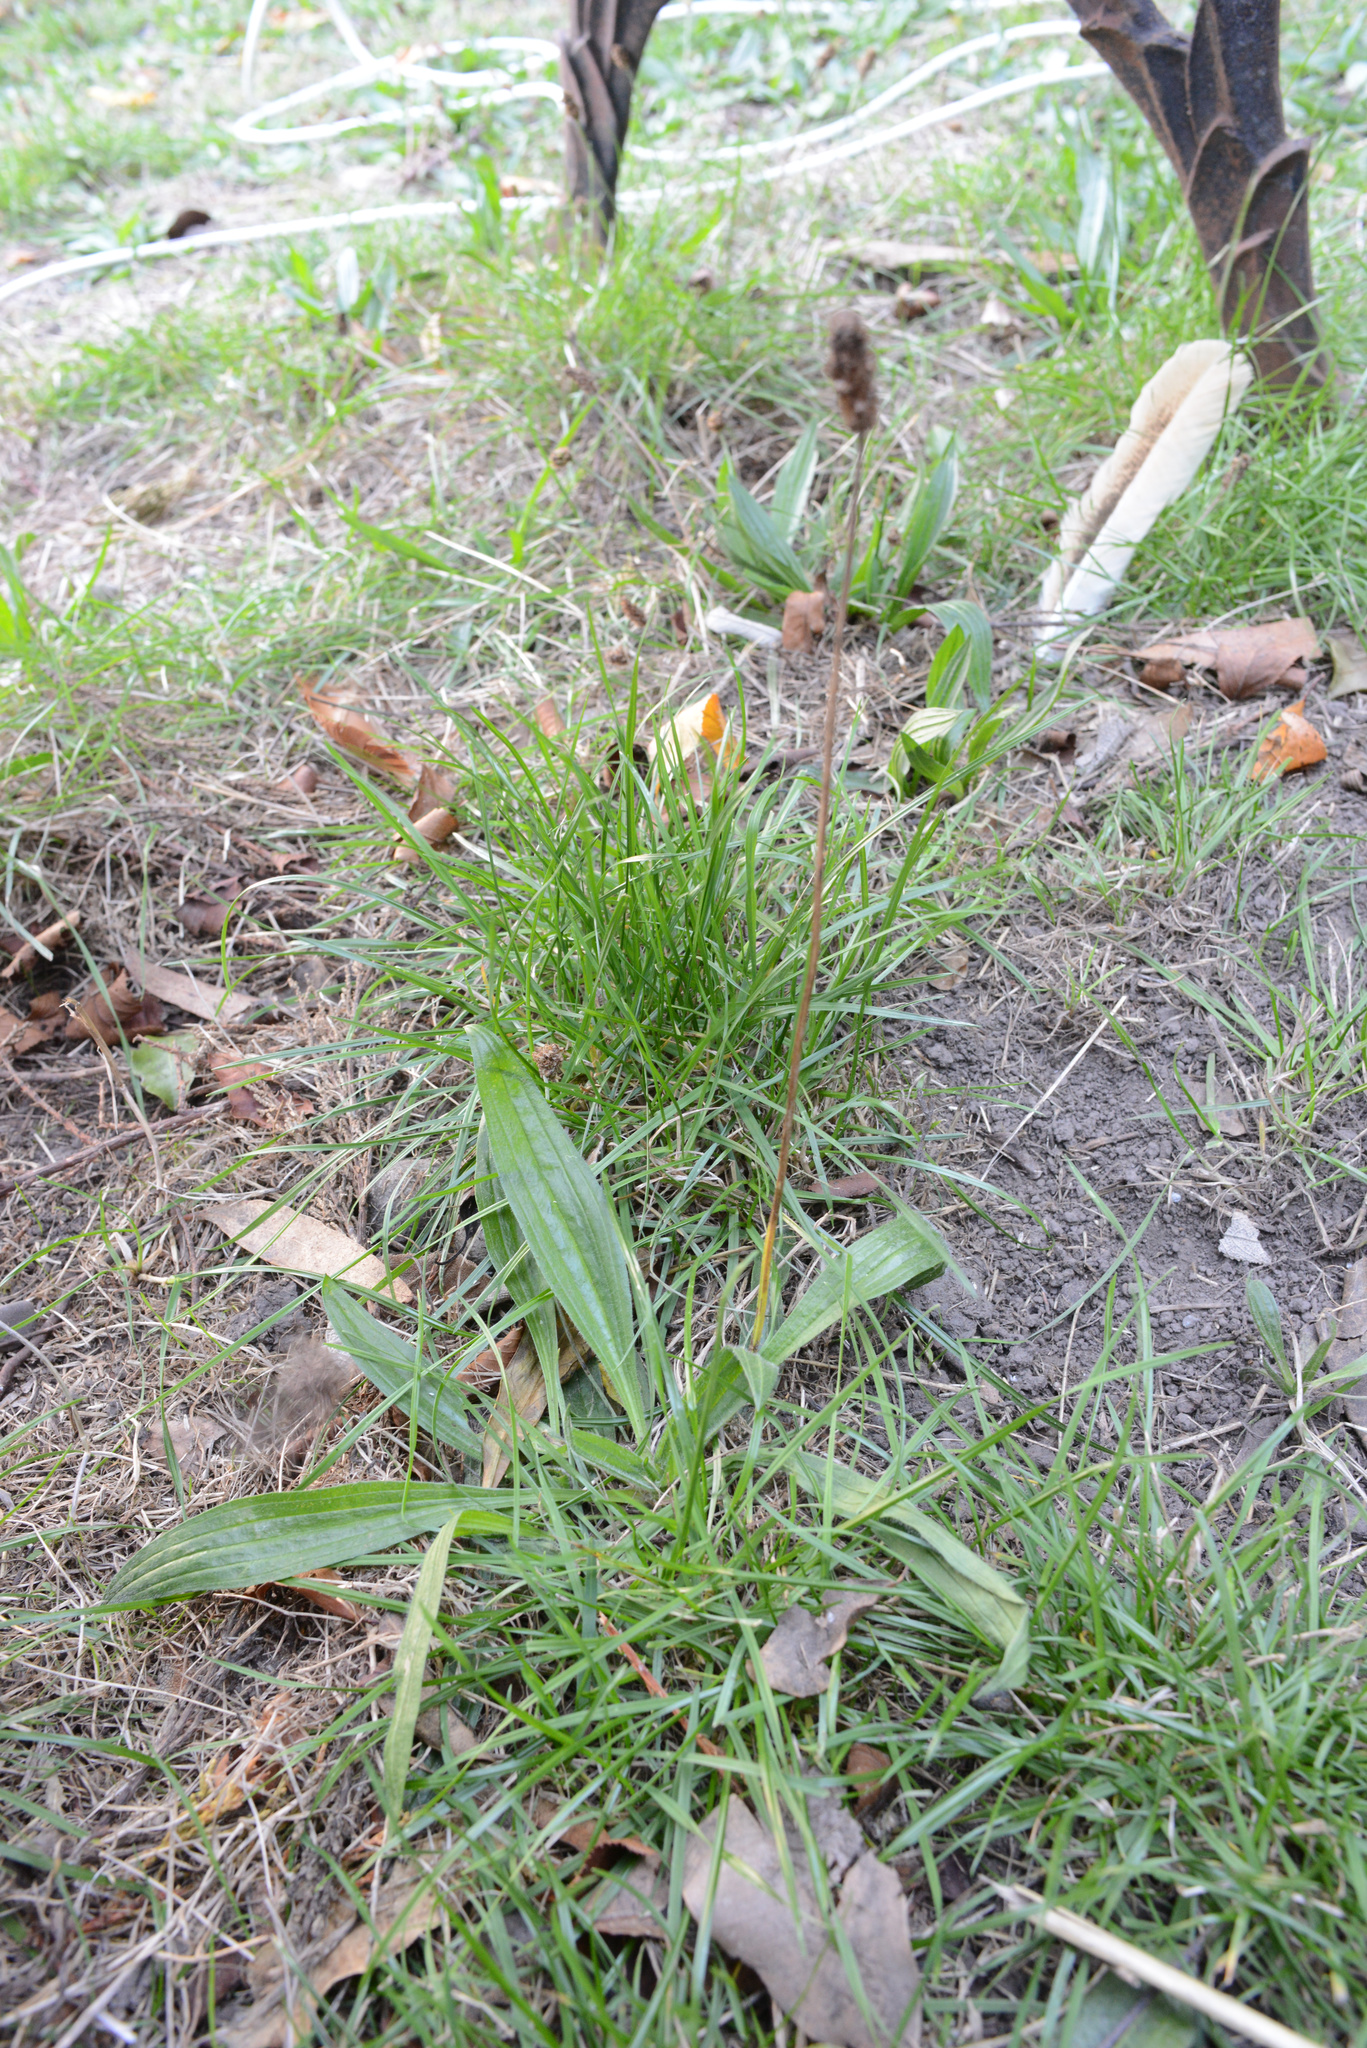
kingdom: Plantae
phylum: Tracheophyta
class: Magnoliopsida
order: Lamiales
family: Plantaginaceae
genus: Plantago
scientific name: Plantago lanceolata
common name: Ribwort plantain
